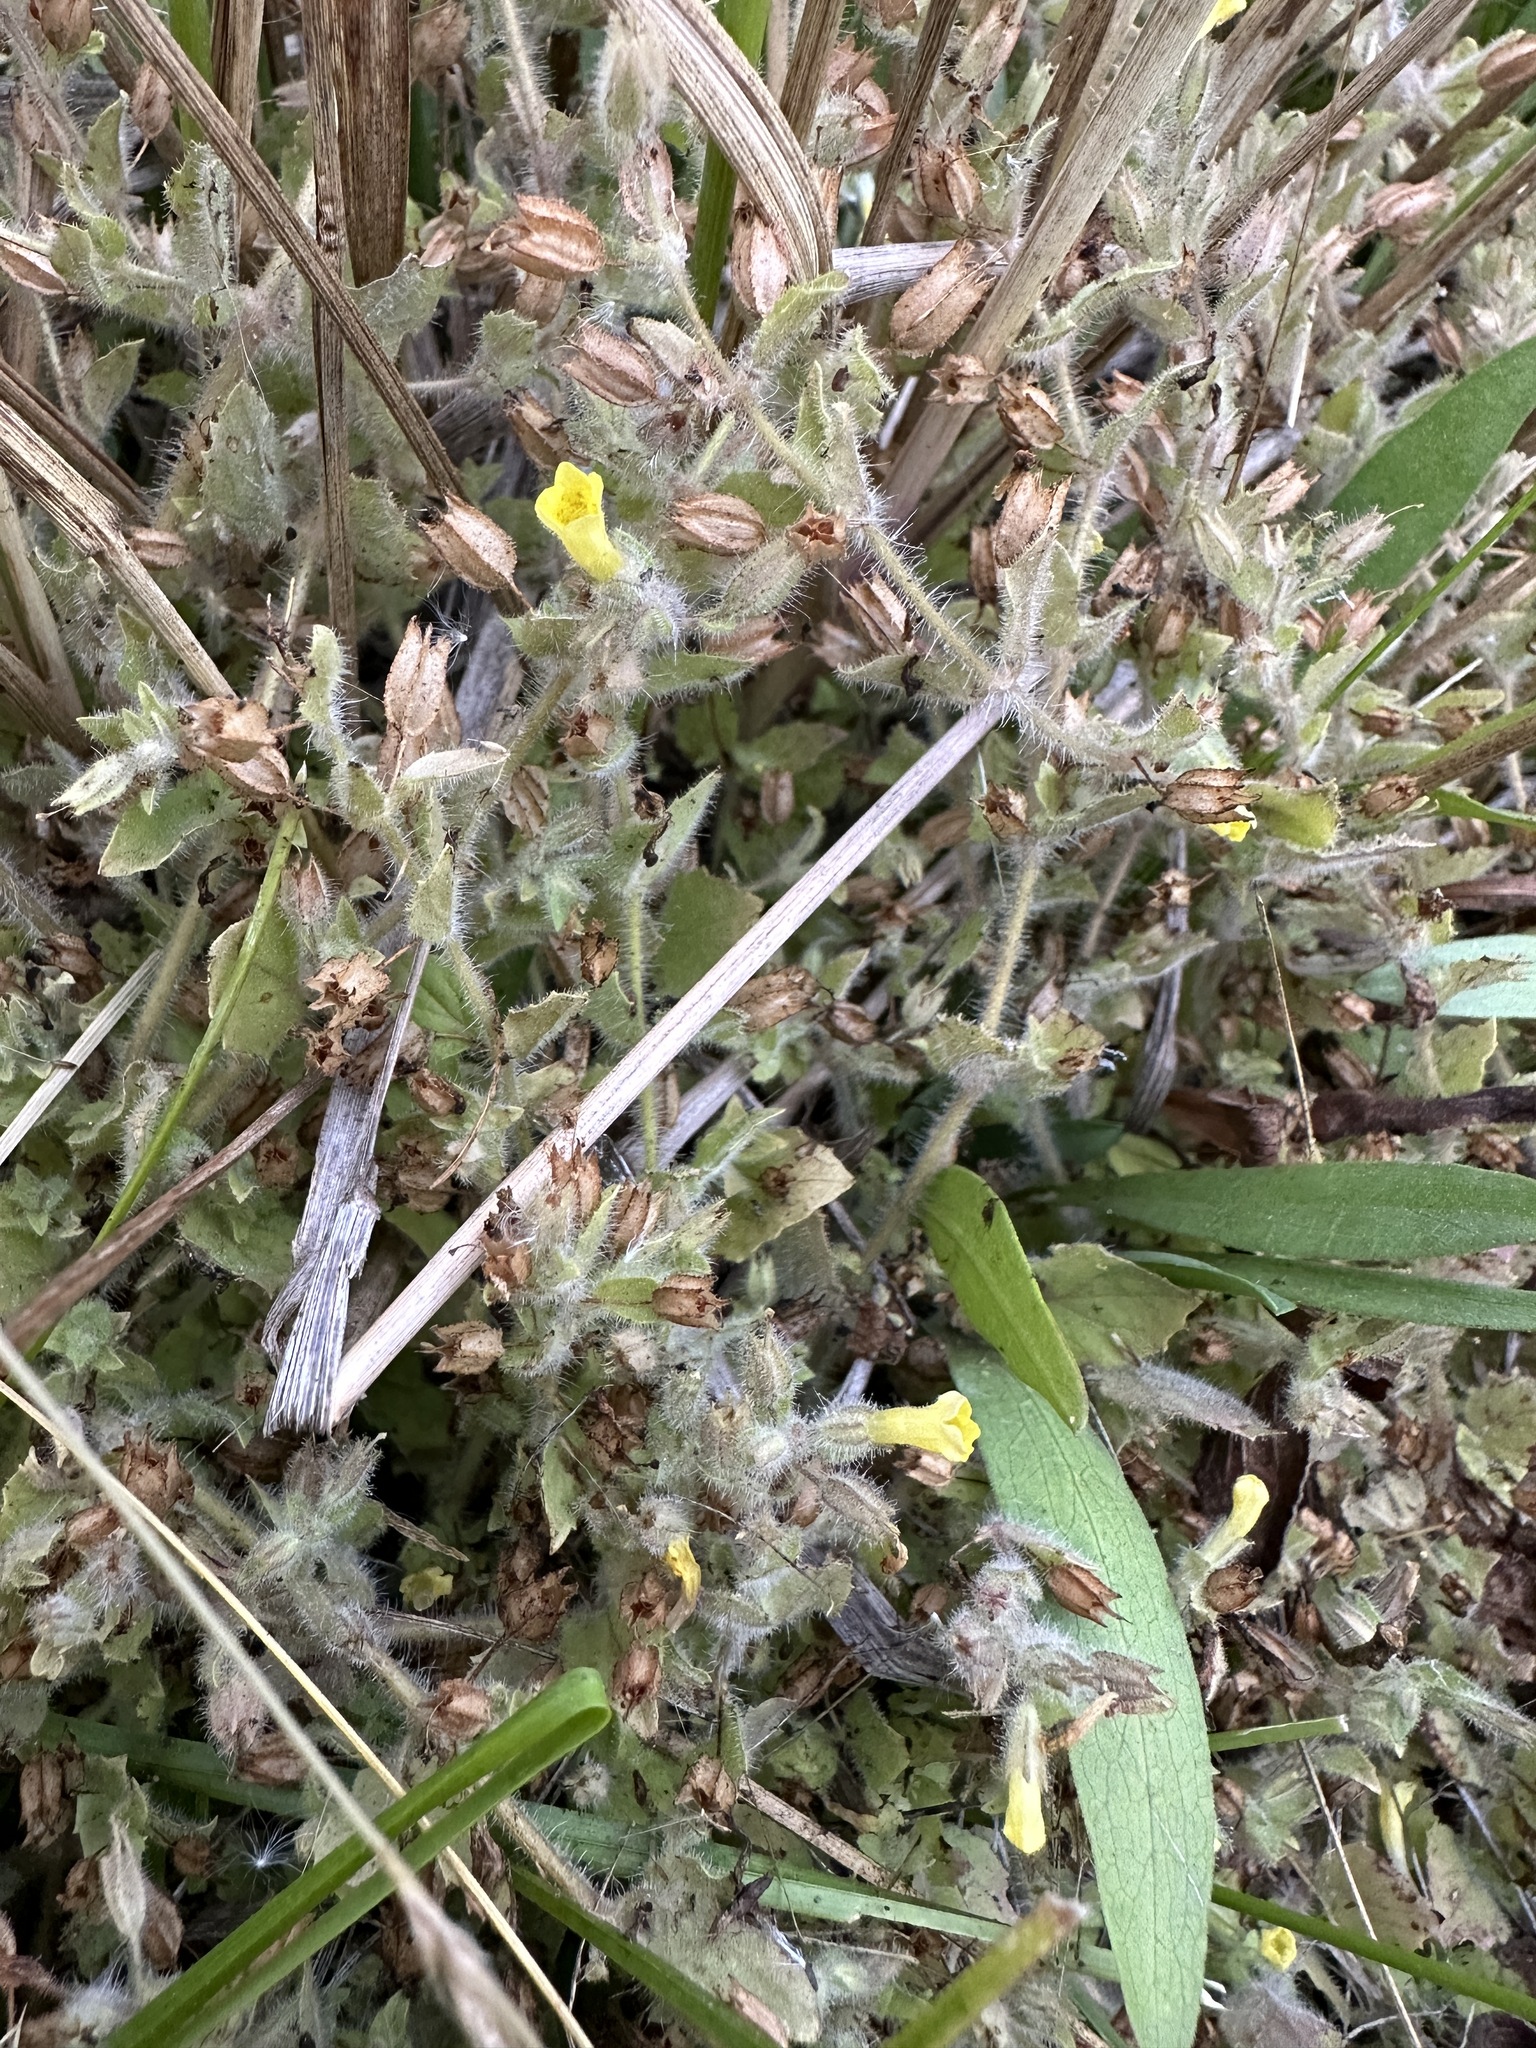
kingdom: Plantae
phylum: Tracheophyta
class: Magnoliopsida
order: Lamiales
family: Phrymaceae
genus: Erythranthe
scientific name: Erythranthe floribunda
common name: Floriferous monkeyflower
